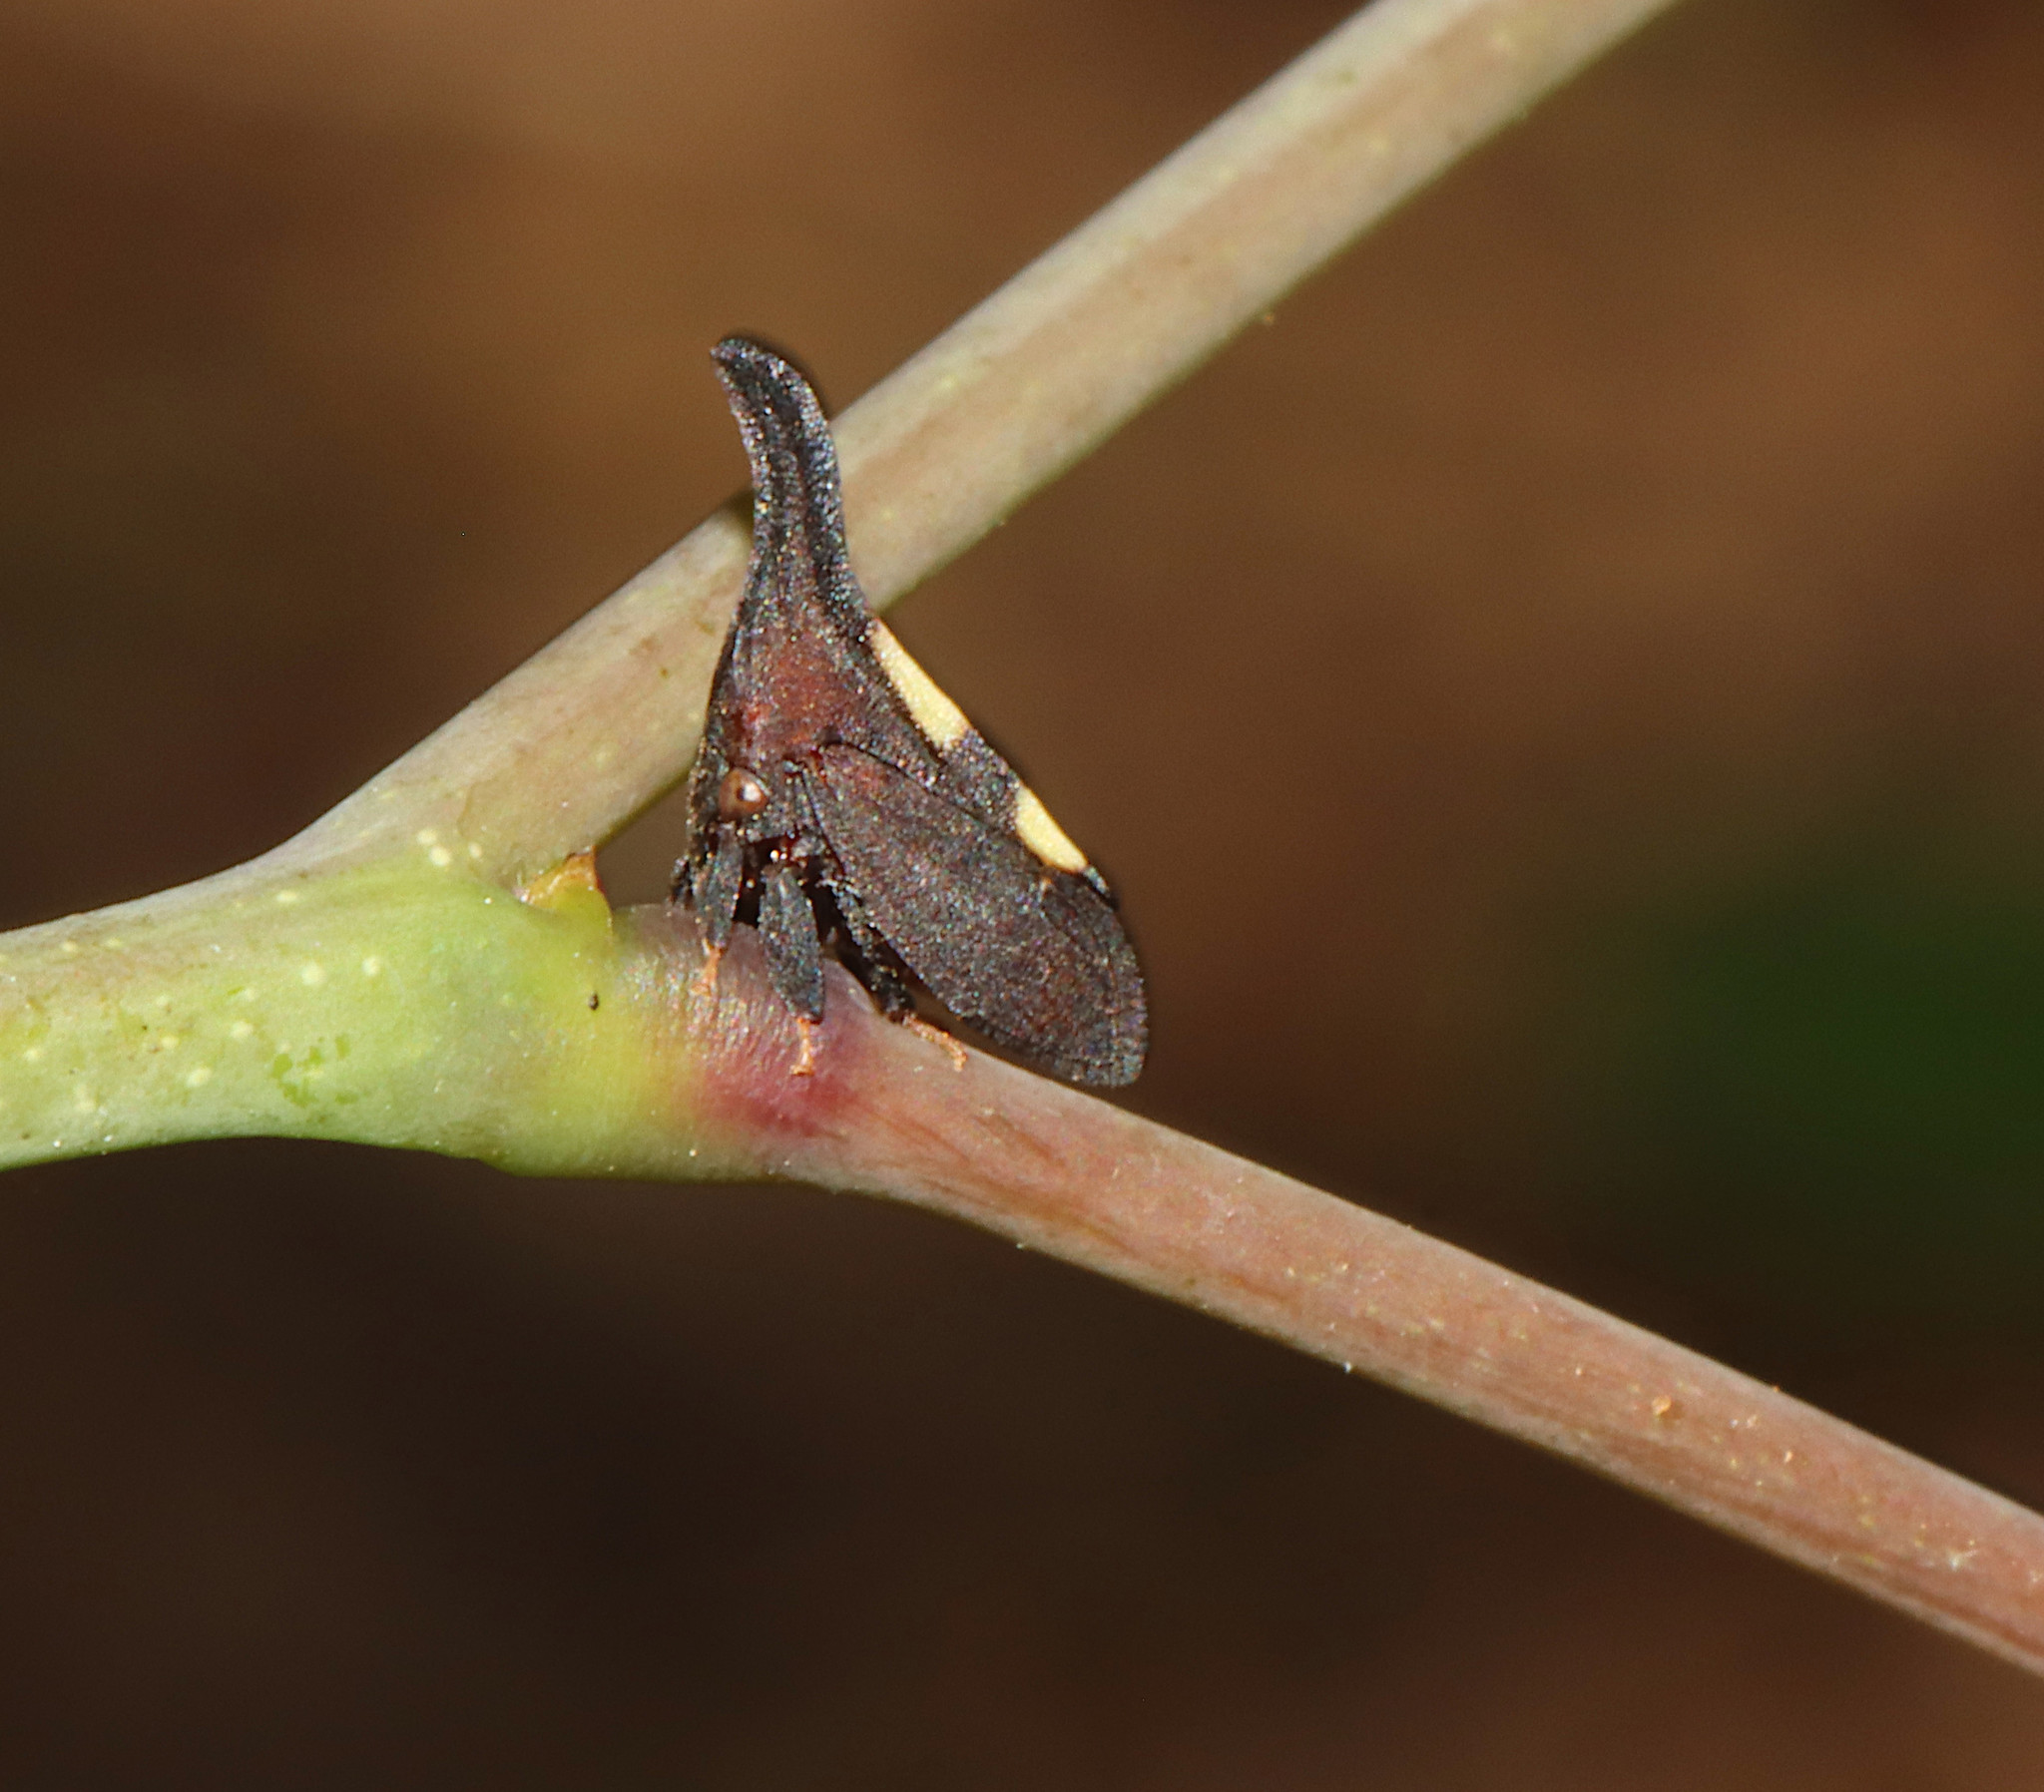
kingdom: Animalia
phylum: Arthropoda
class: Insecta
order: Hemiptera
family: Membracidae
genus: Enchenopa
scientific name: Enchenopa
